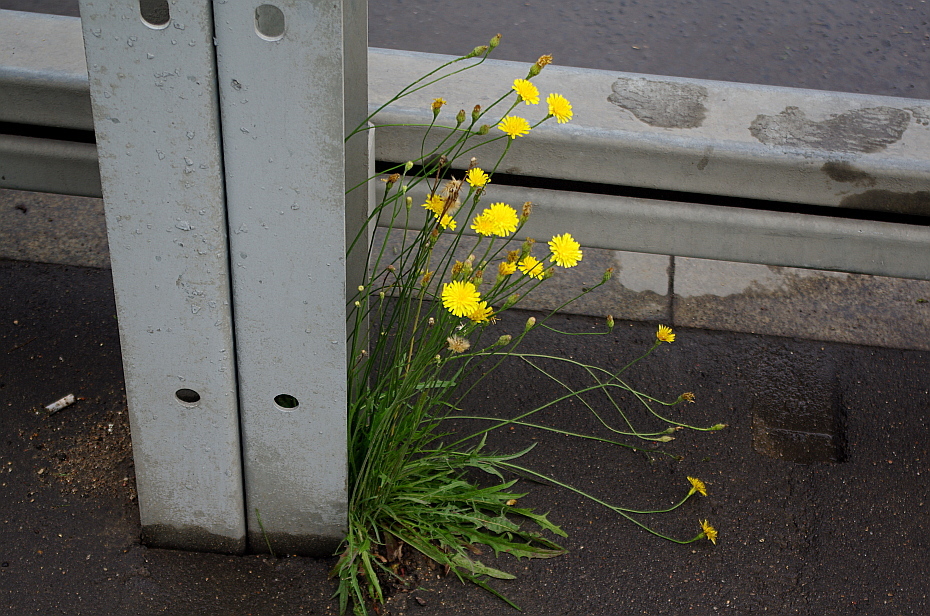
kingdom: Plantae
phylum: Tracheophyta
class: Magnoliopsida
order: Asterales
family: Asteraceae
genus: Scorzoneroides
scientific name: Scorzoneroides autumnalis
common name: Autumn hawkbit
